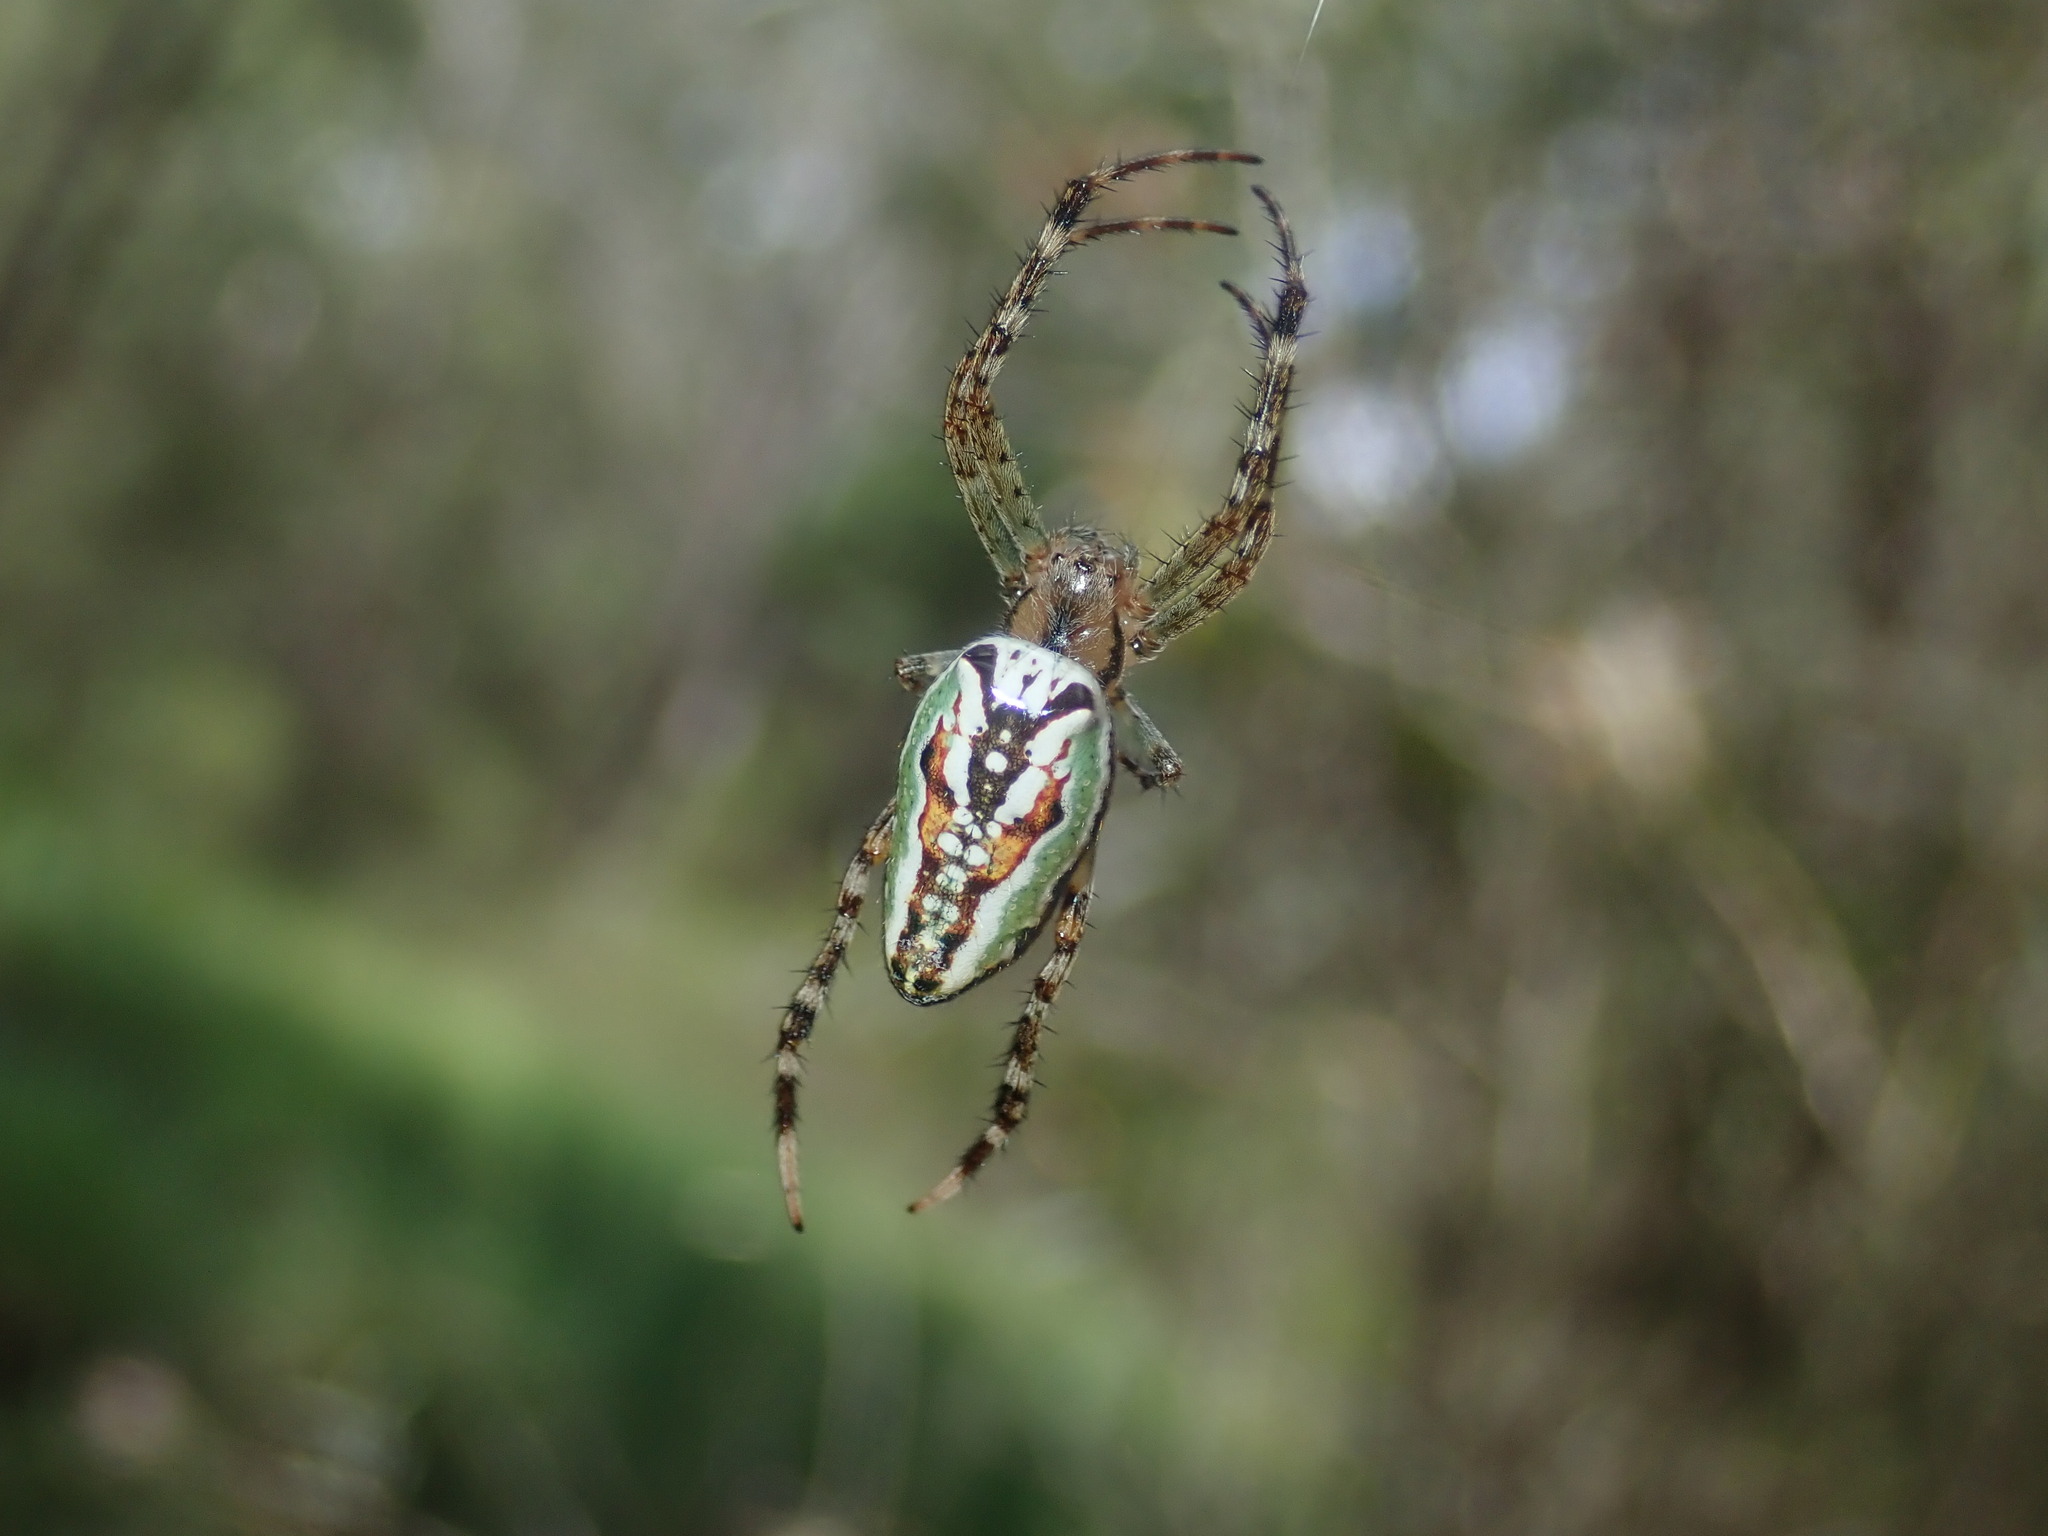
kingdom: Animalia
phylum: Arthropoda
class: Arachnida
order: Araneae
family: Araneidae
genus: Plebs
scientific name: Plebs bradleyi
